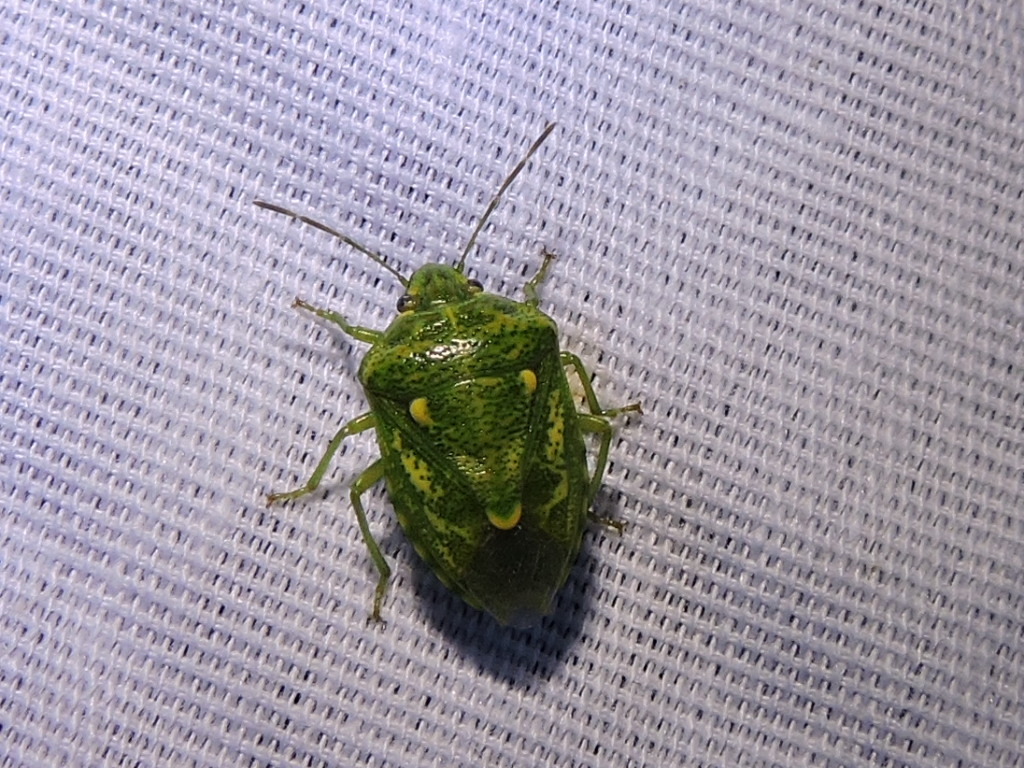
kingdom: Animalia
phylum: Arthropoda
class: Insecta
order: Hemiptera
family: Pentatomidae
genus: Banasa
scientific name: Banasa euchlora
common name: Cedar berry bug
